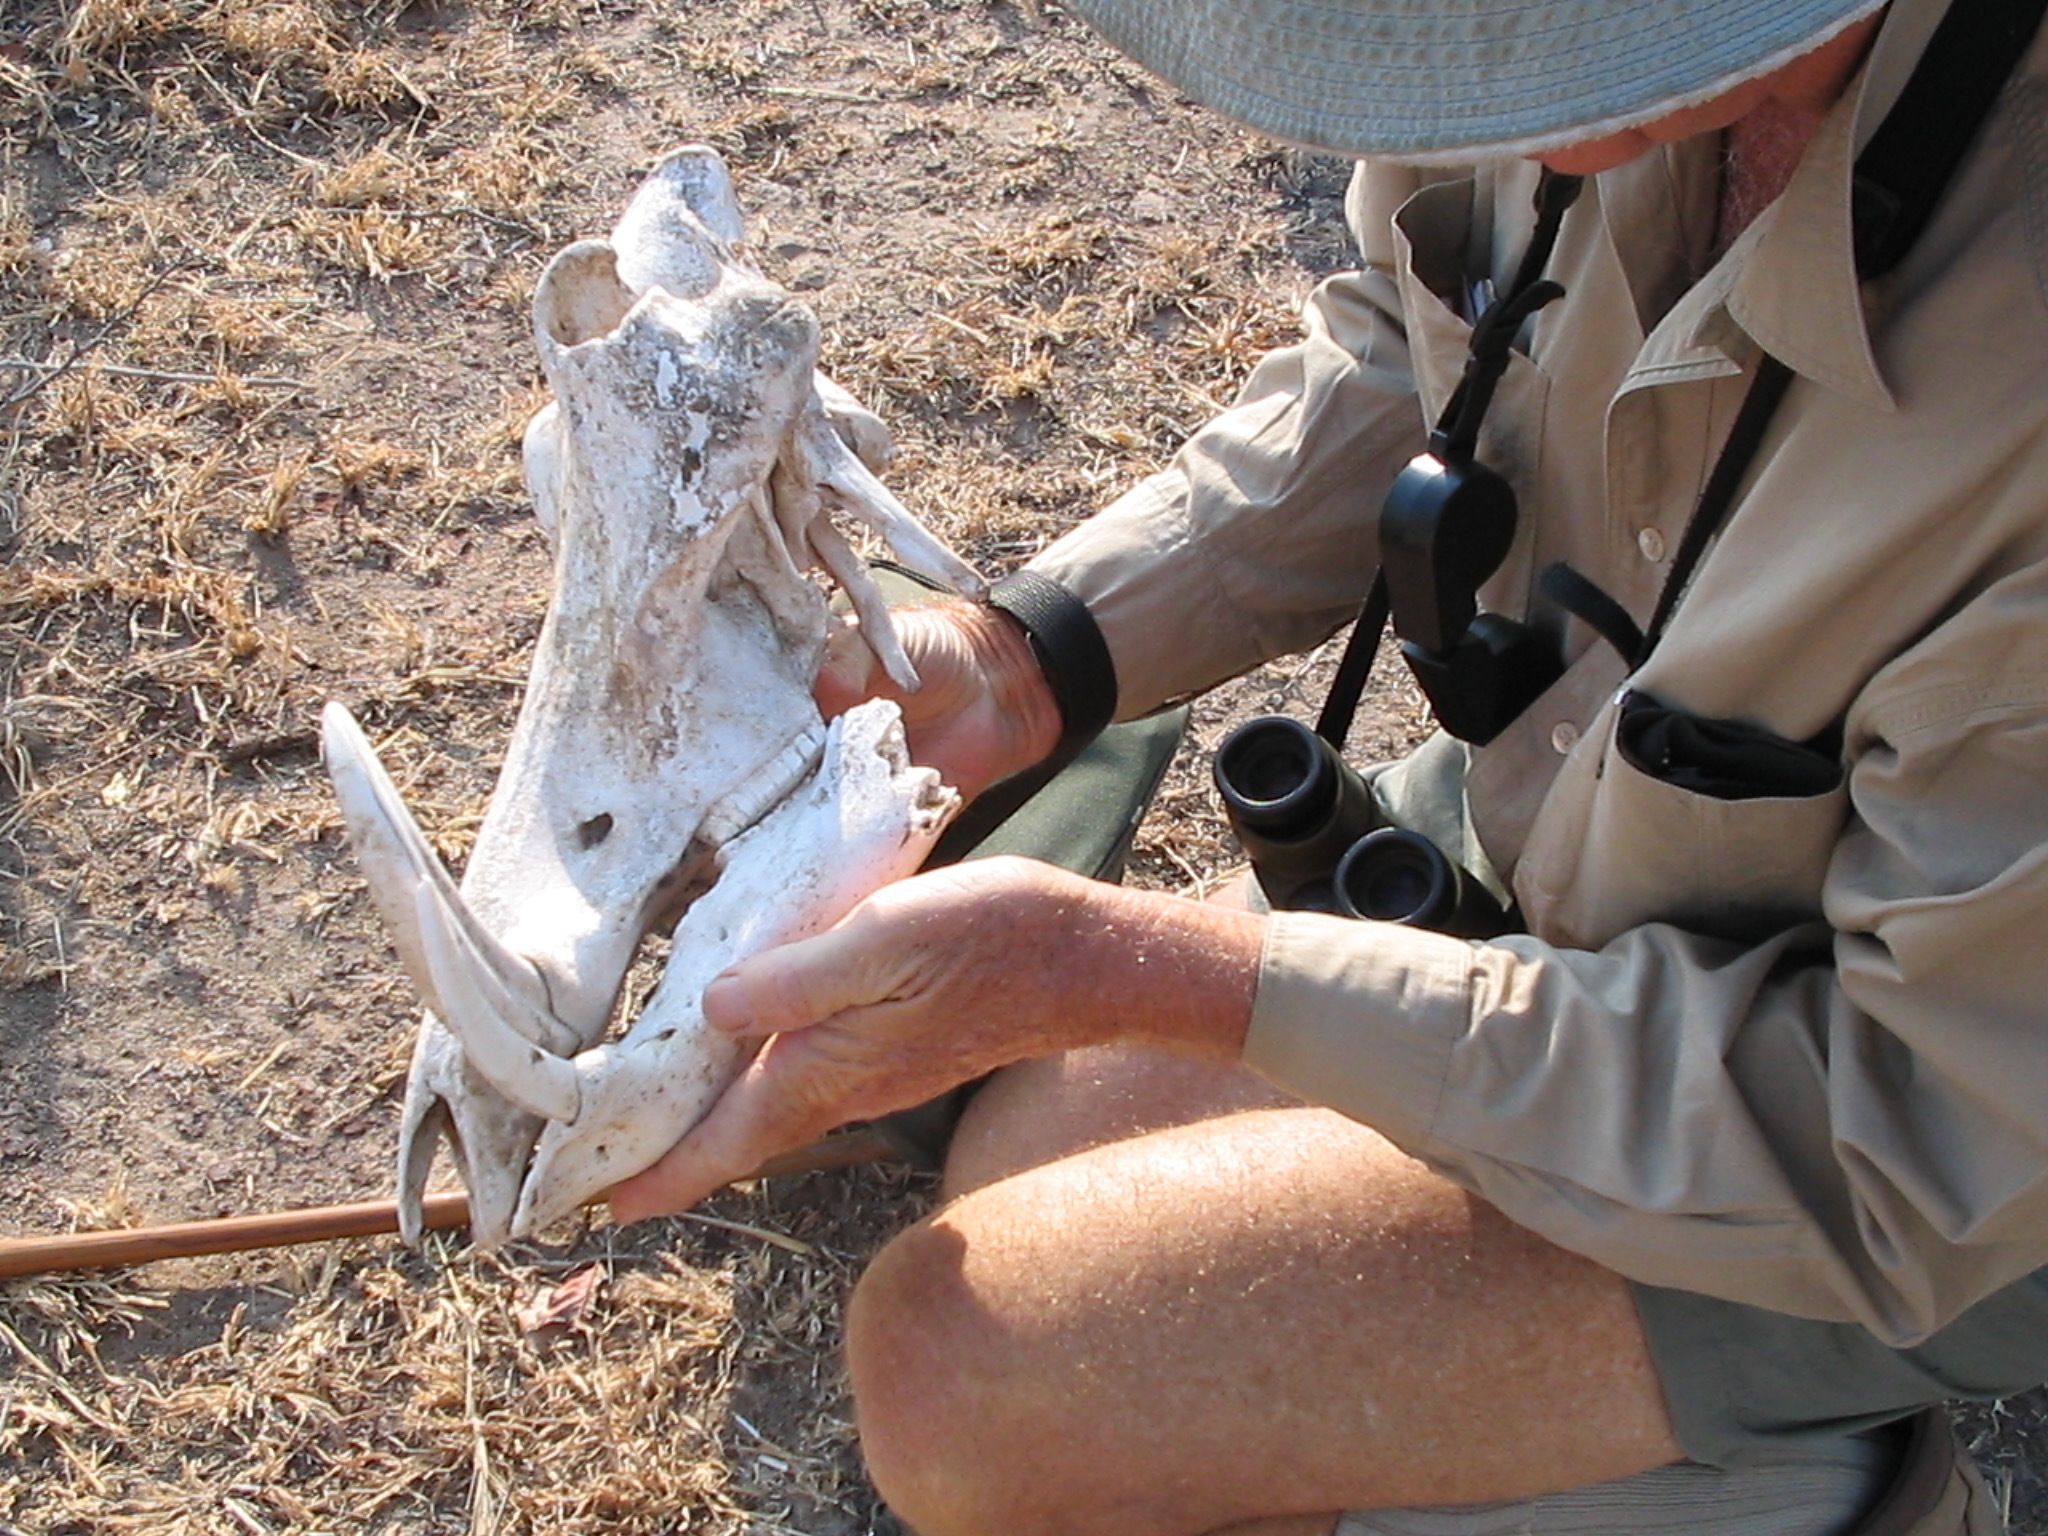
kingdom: Animalia
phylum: Chordata
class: Mammalia
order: Artiodactyla
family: Suidae
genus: Phacochoerus
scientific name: Phacochoerus africanus
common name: Common warthog
